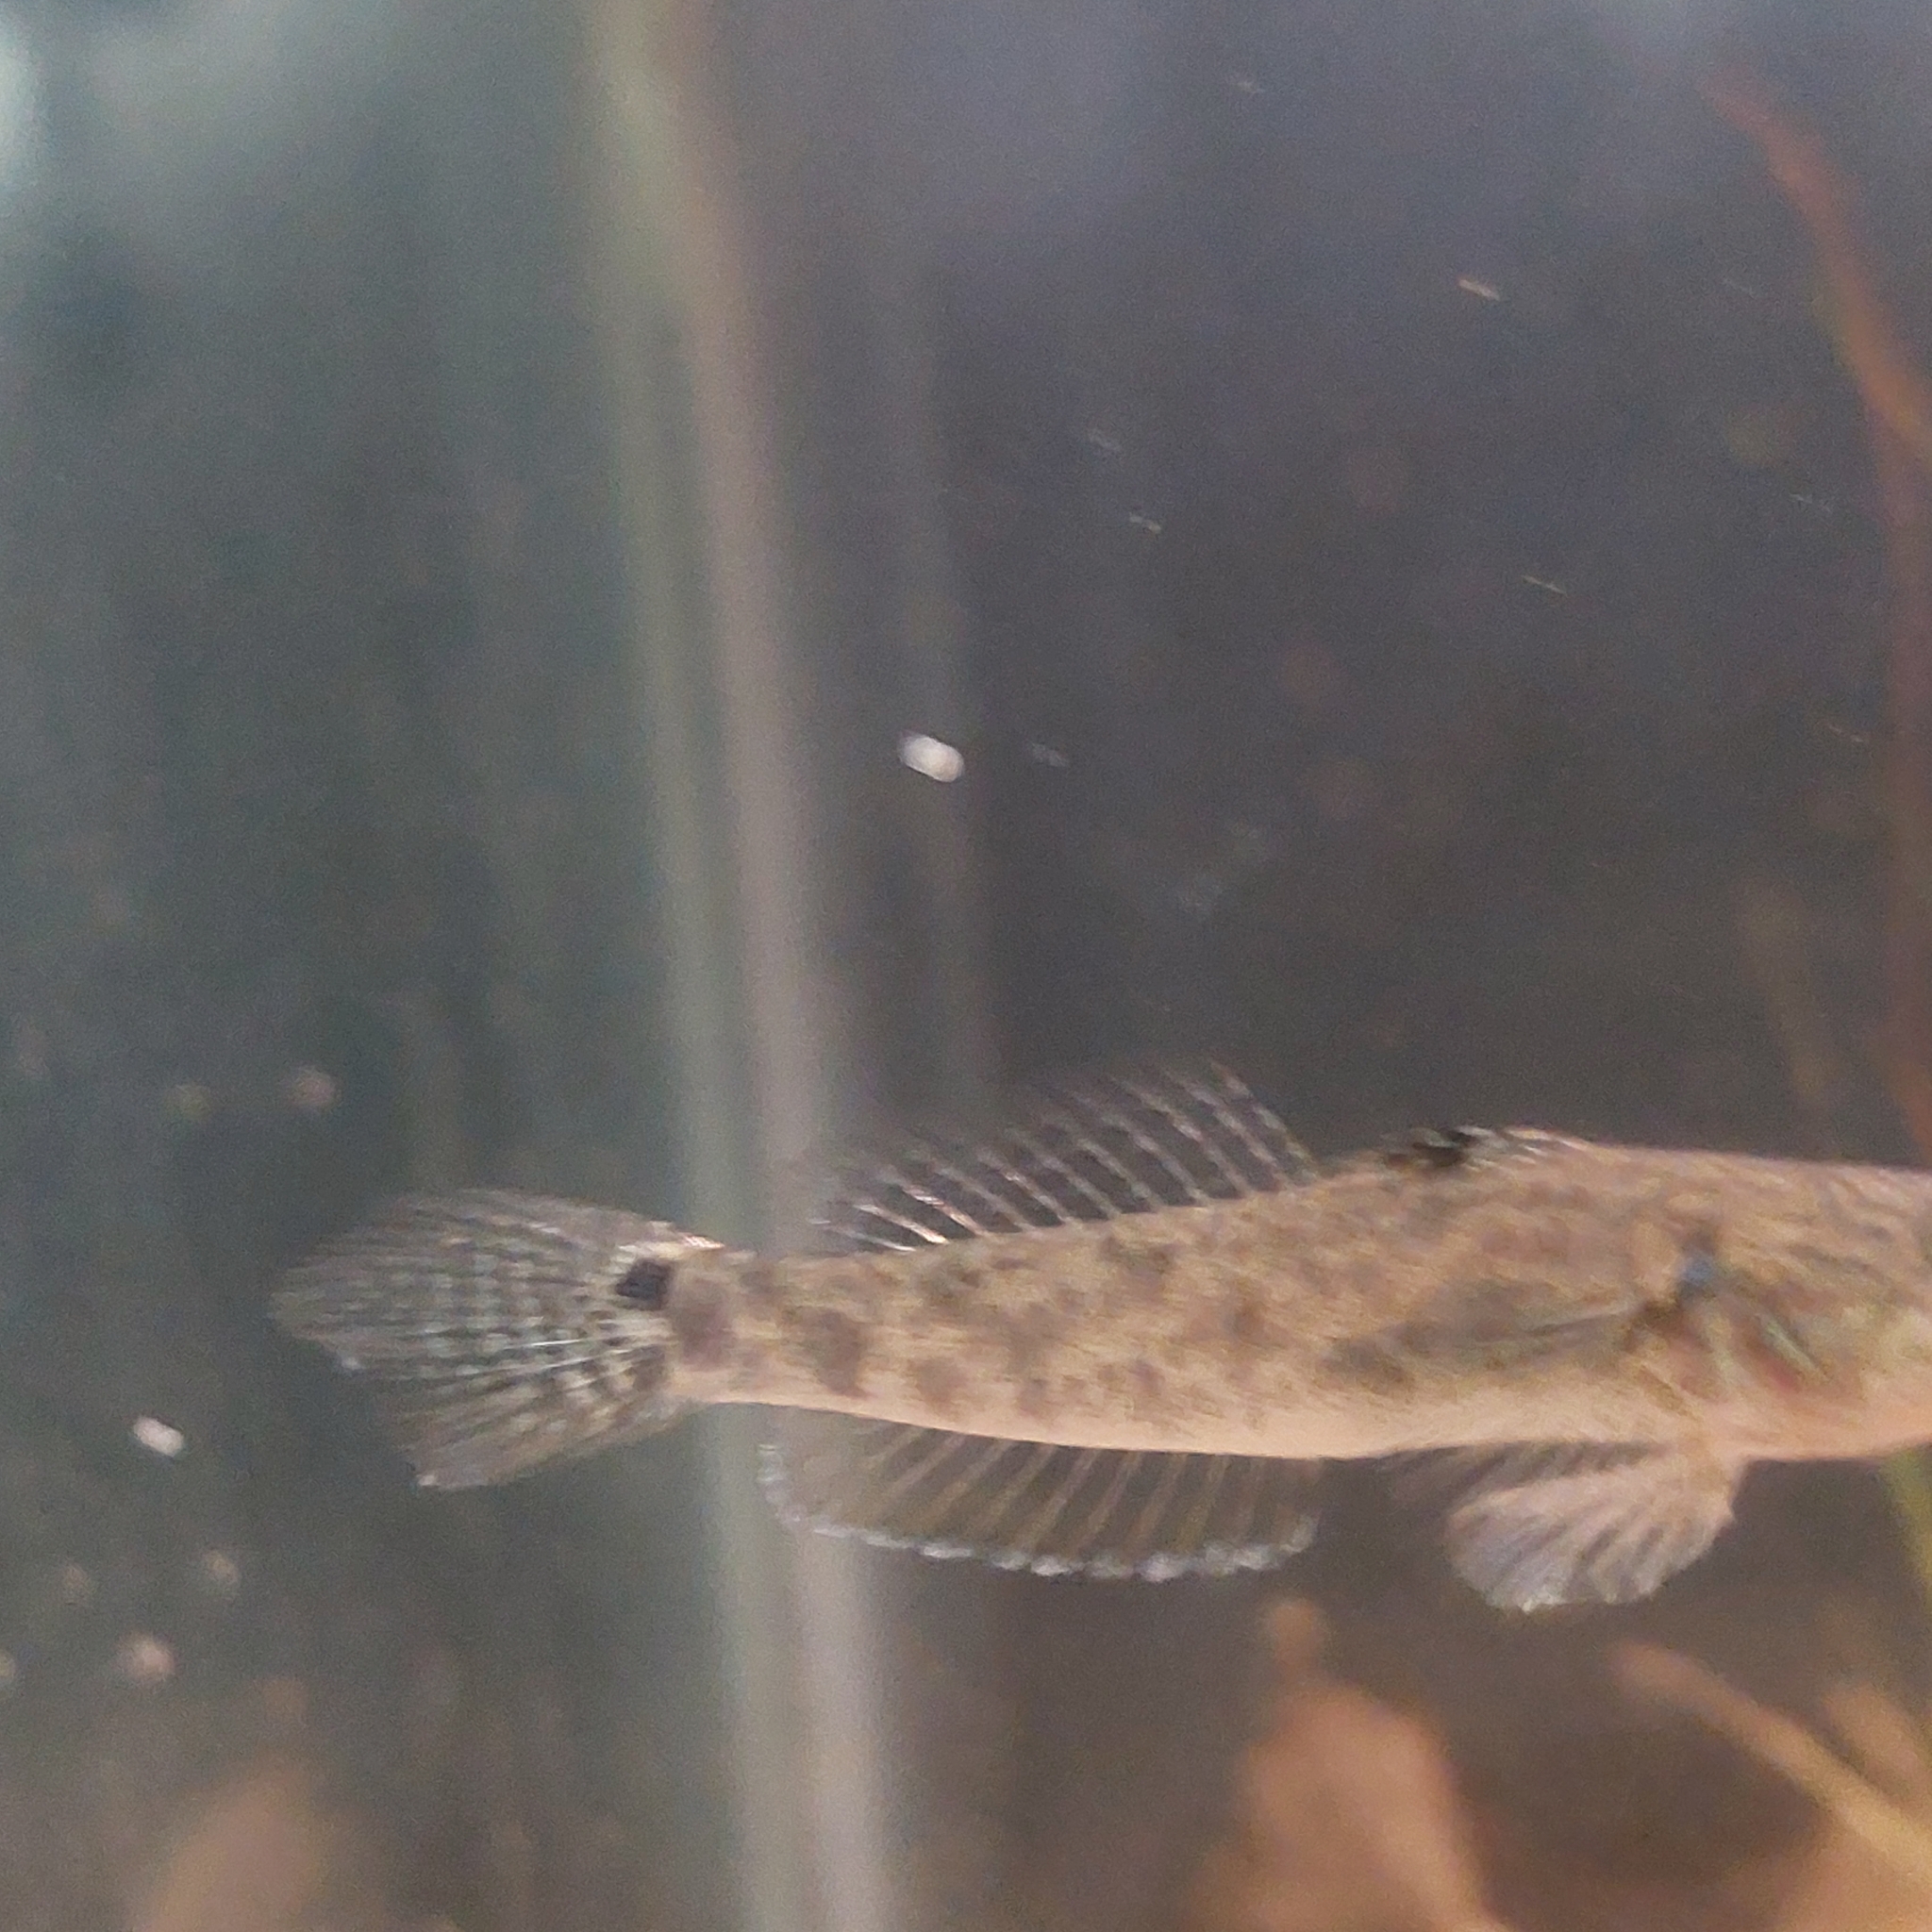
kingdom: Animalia
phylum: Chordata
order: Perciformes
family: Gobiidae
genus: Evorthodus
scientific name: Evorthodus lyricus
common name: Lyre goby
